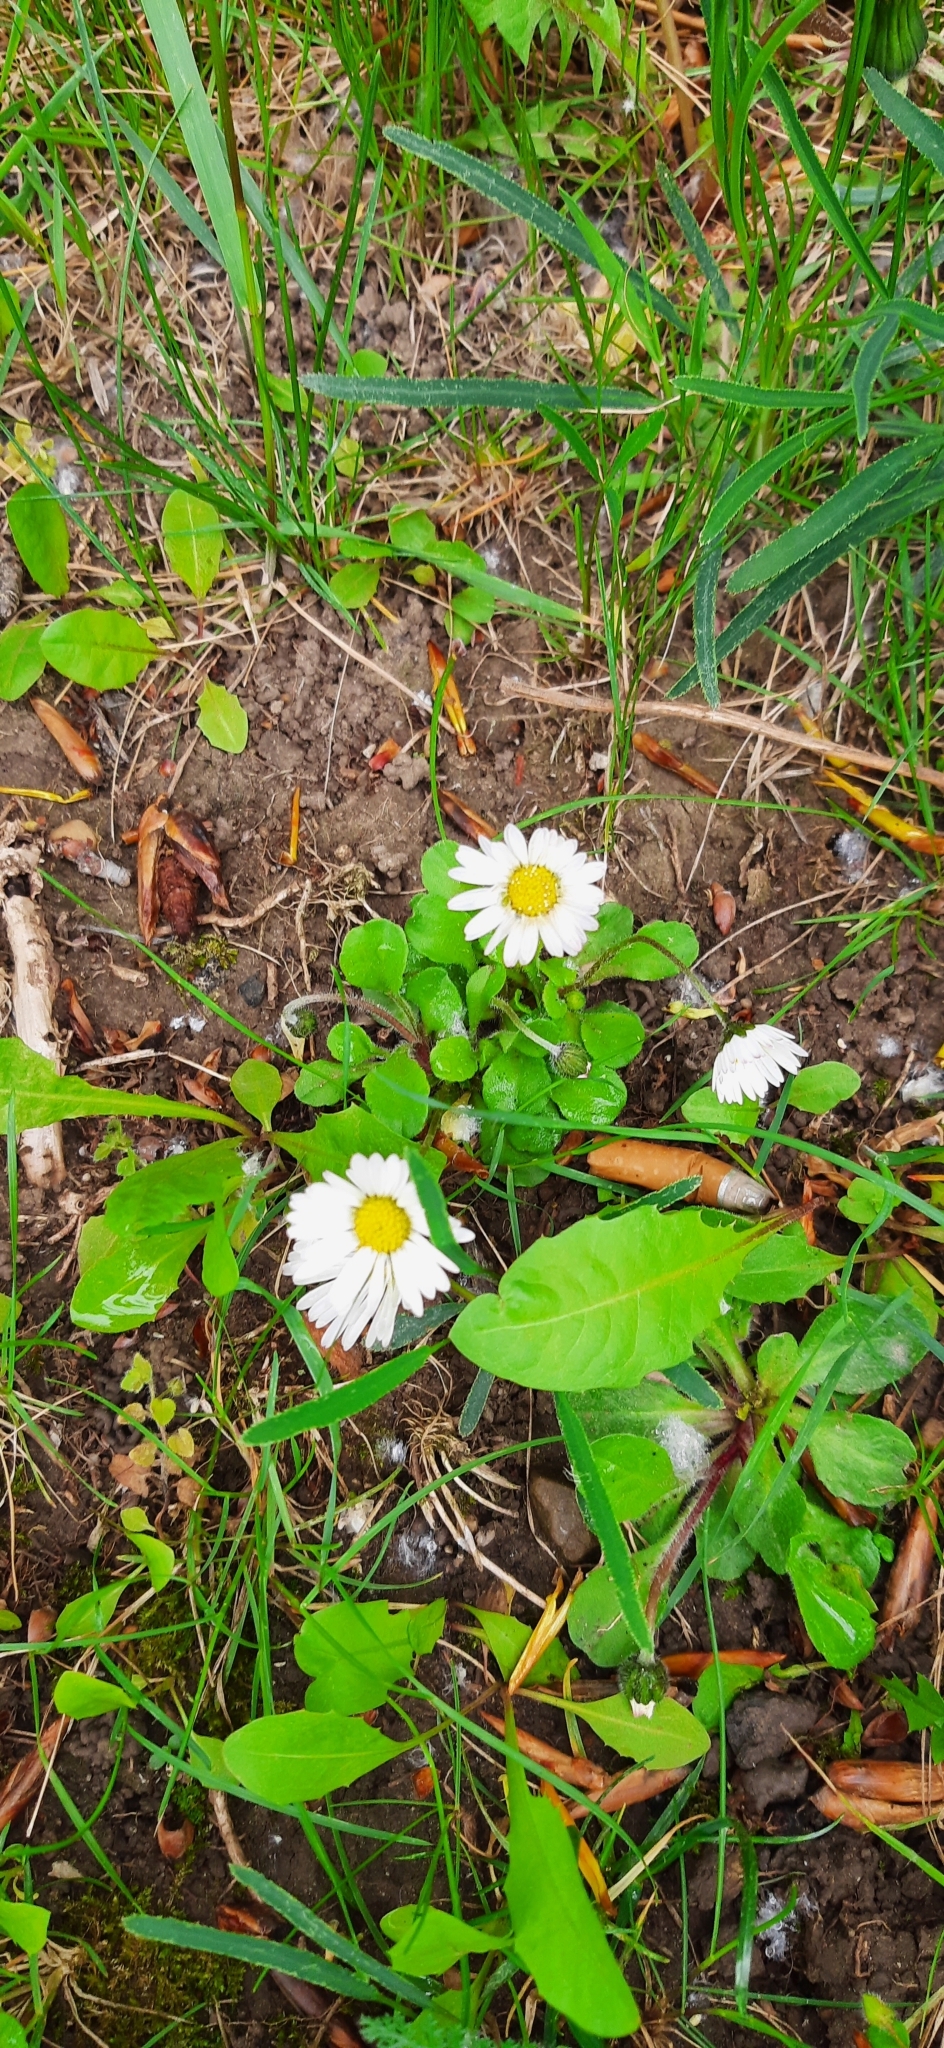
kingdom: Plantae
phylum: Tracheophyta
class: Magnoliopsida
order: Asterales
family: Asteraceae
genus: Bellis
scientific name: Bellis perennis
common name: Lawndaisy
